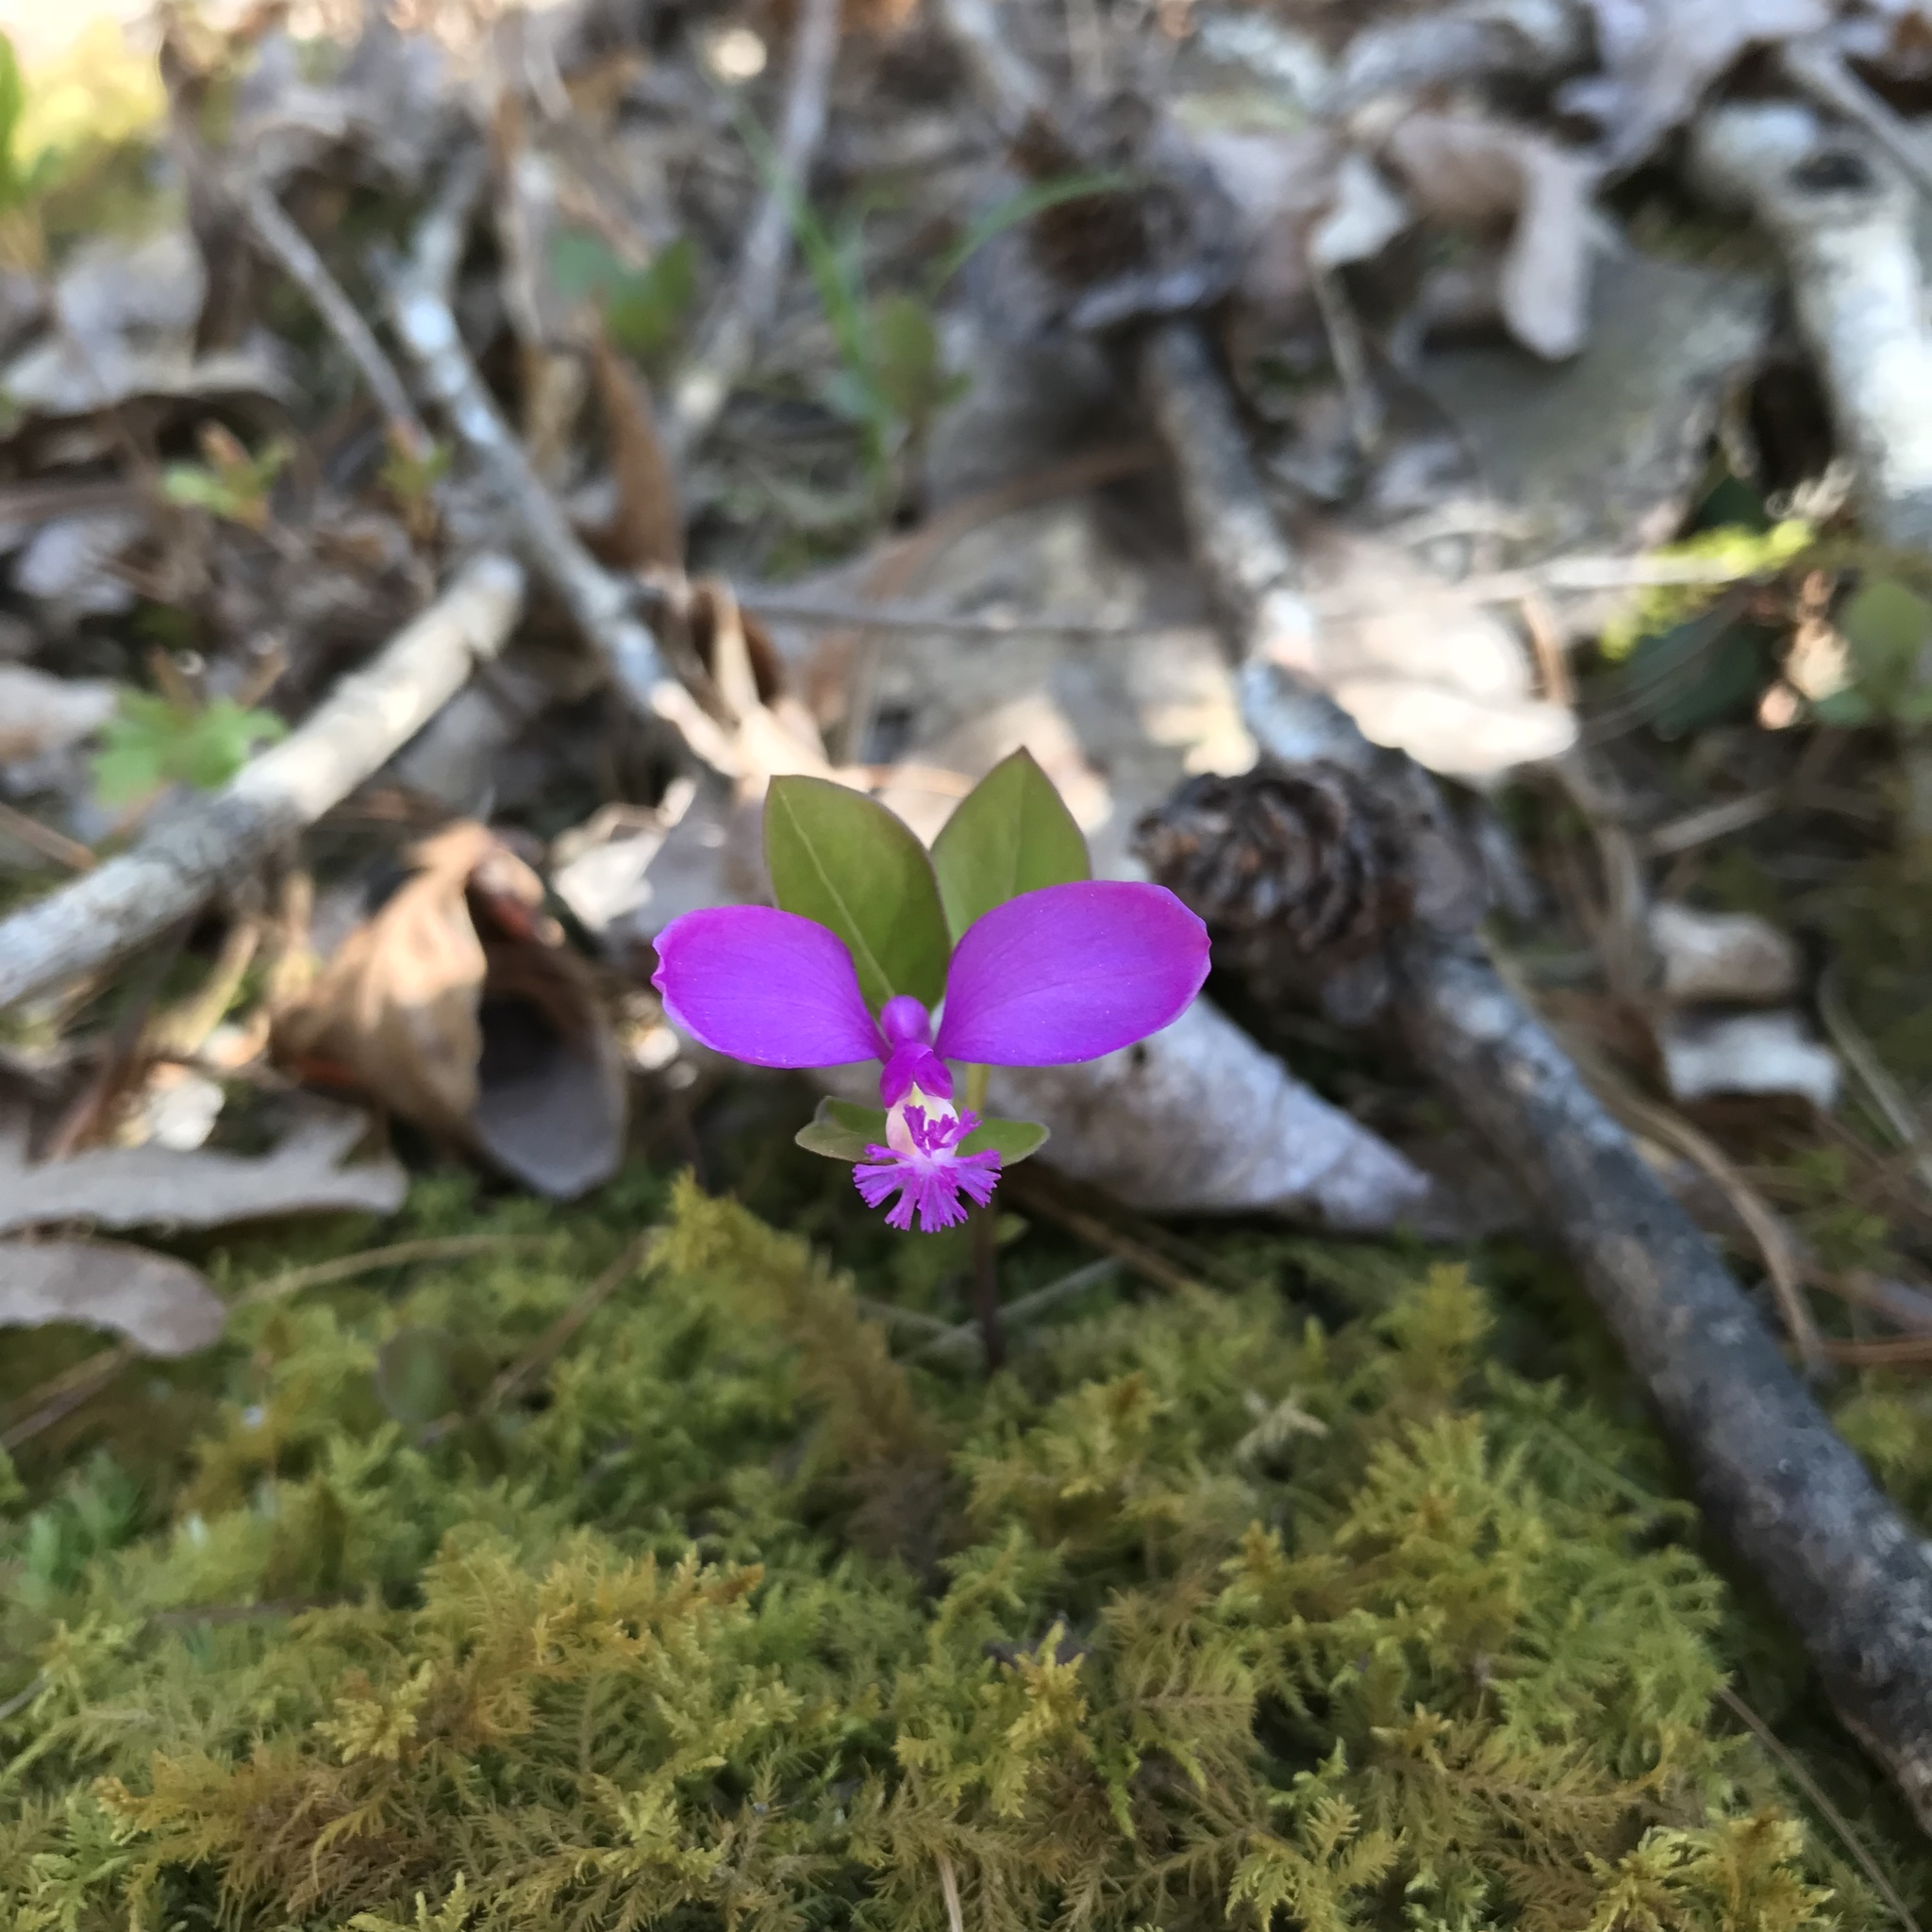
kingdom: Plantae
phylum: Tracheophyta
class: Magnoliopsida
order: Fabales
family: Polygalaceae
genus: Polygaloides
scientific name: Polygaloides paucifolia
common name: Bird-on-the-wing
